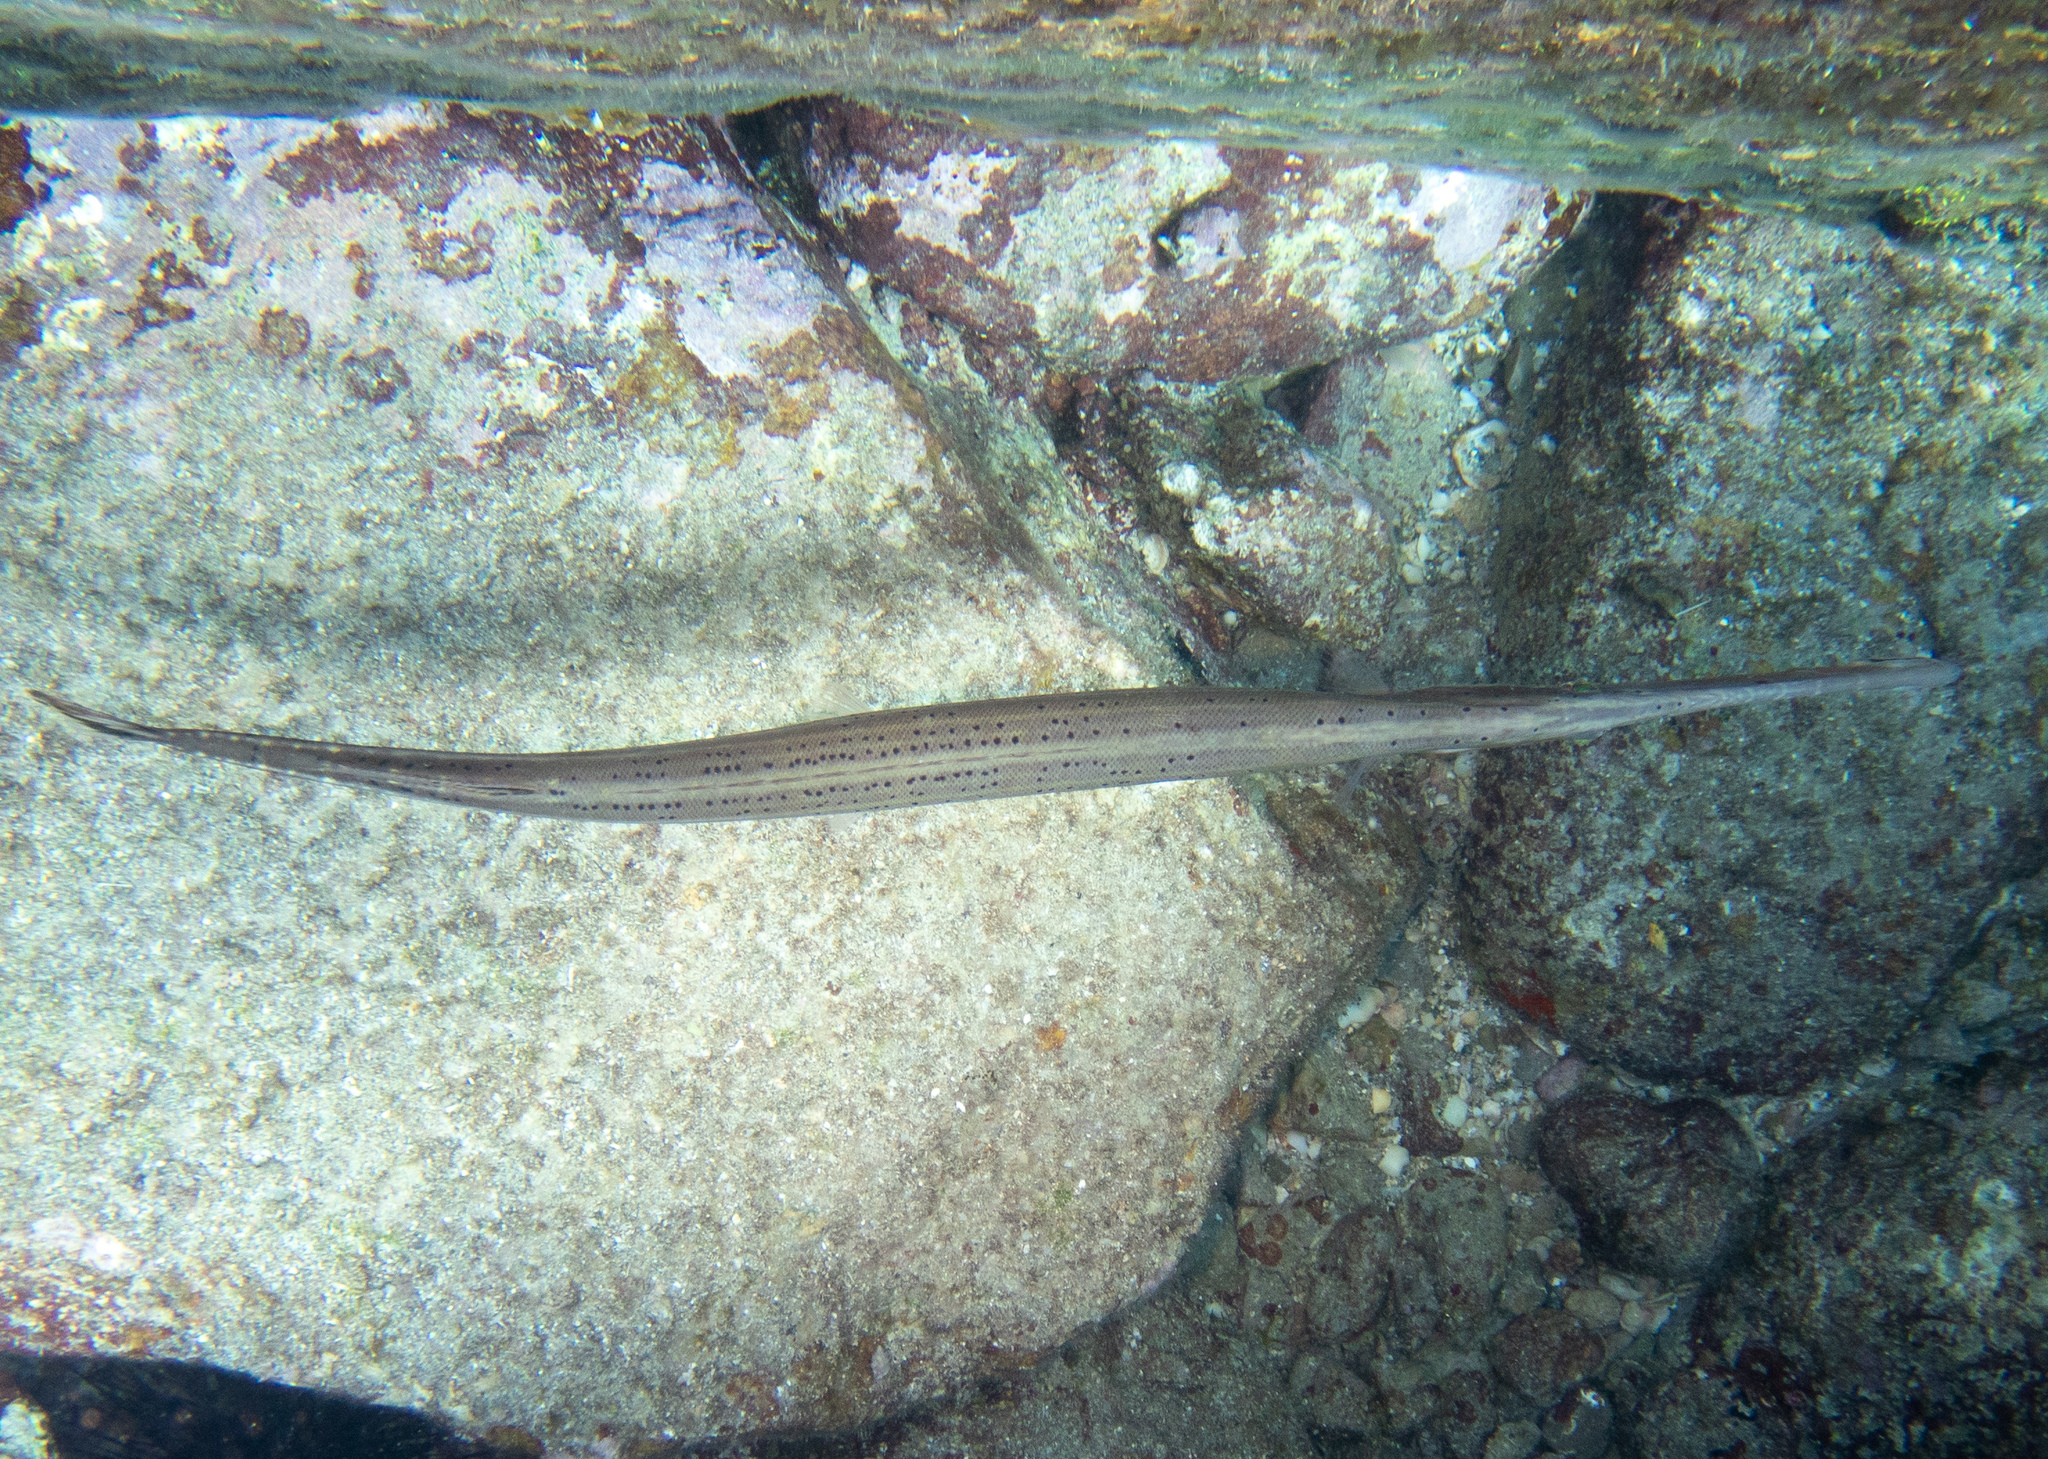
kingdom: Animalia
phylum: Chordata
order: Syngnathiformes
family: Aulostomidae
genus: Aulostomus
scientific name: Aulostomus maculatus
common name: West atlantic trumpetfish
